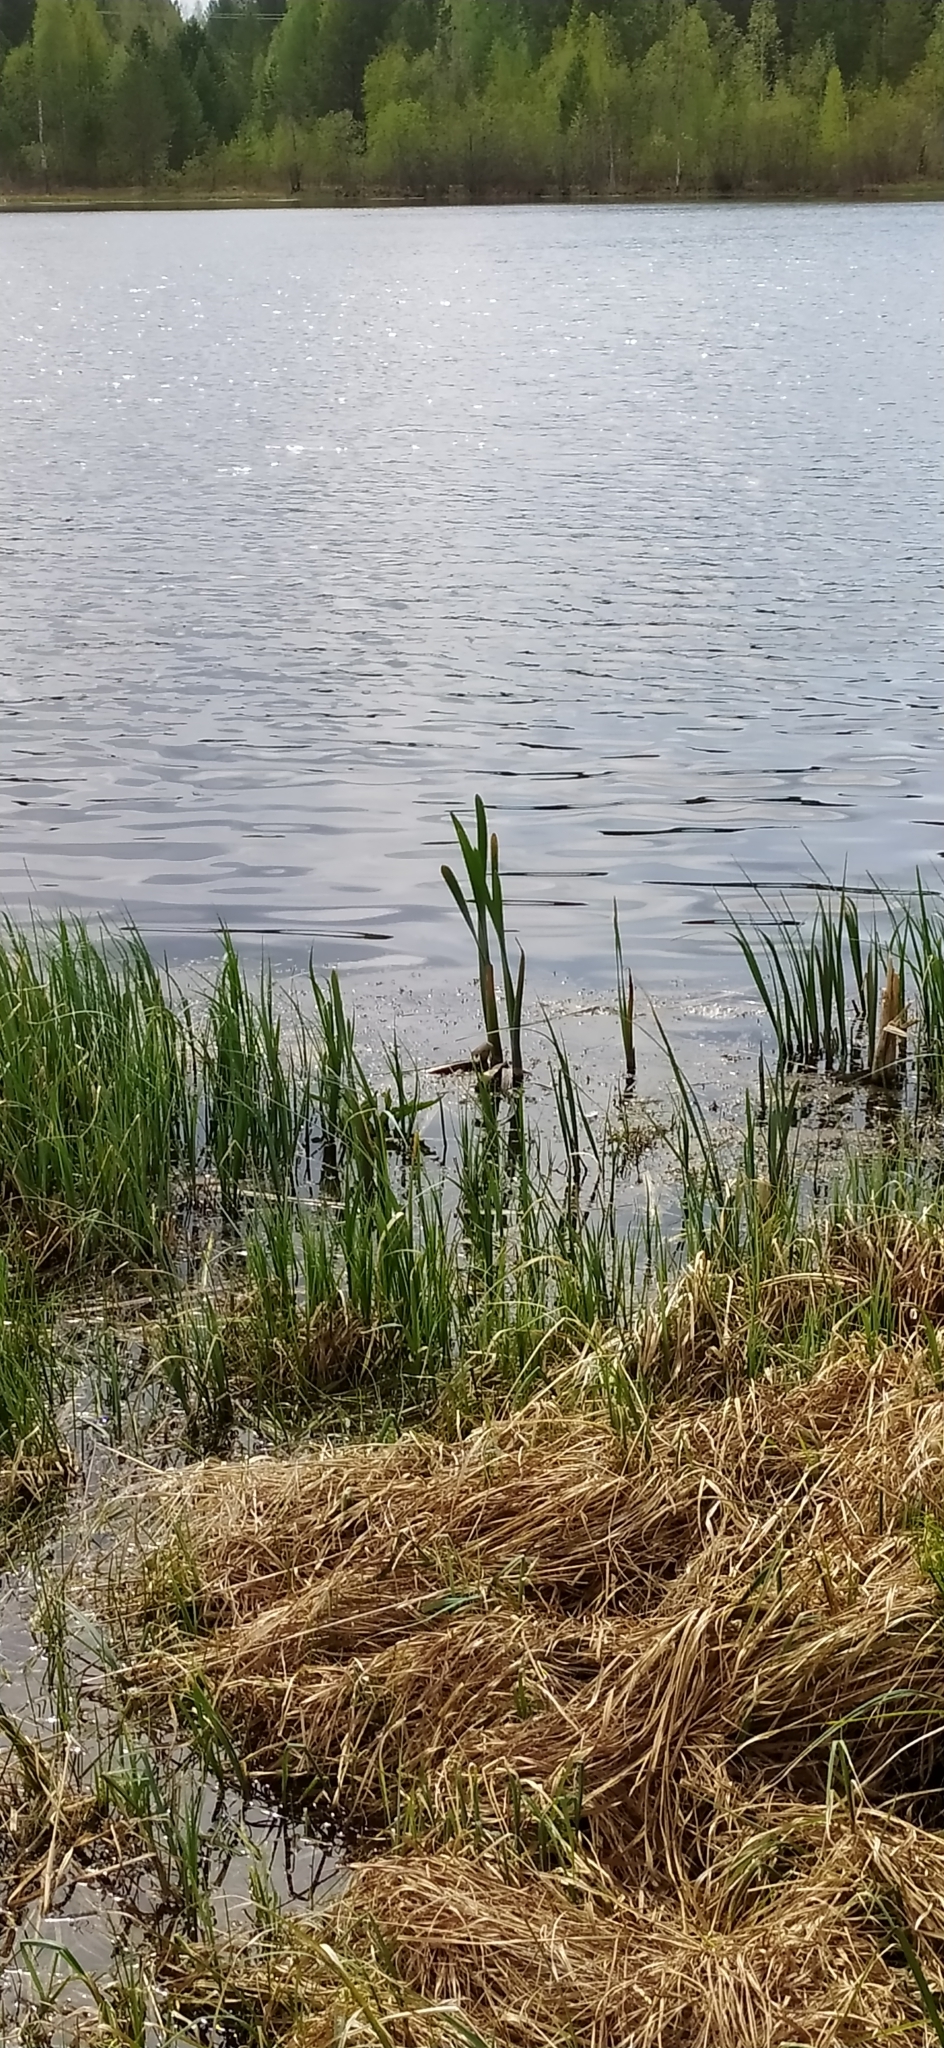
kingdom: Plantae
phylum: Tracheophyta
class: Liliopsida
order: Poales
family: Typhaceae
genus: Typha
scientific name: Typha latifolia
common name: Broadleaf cattail
